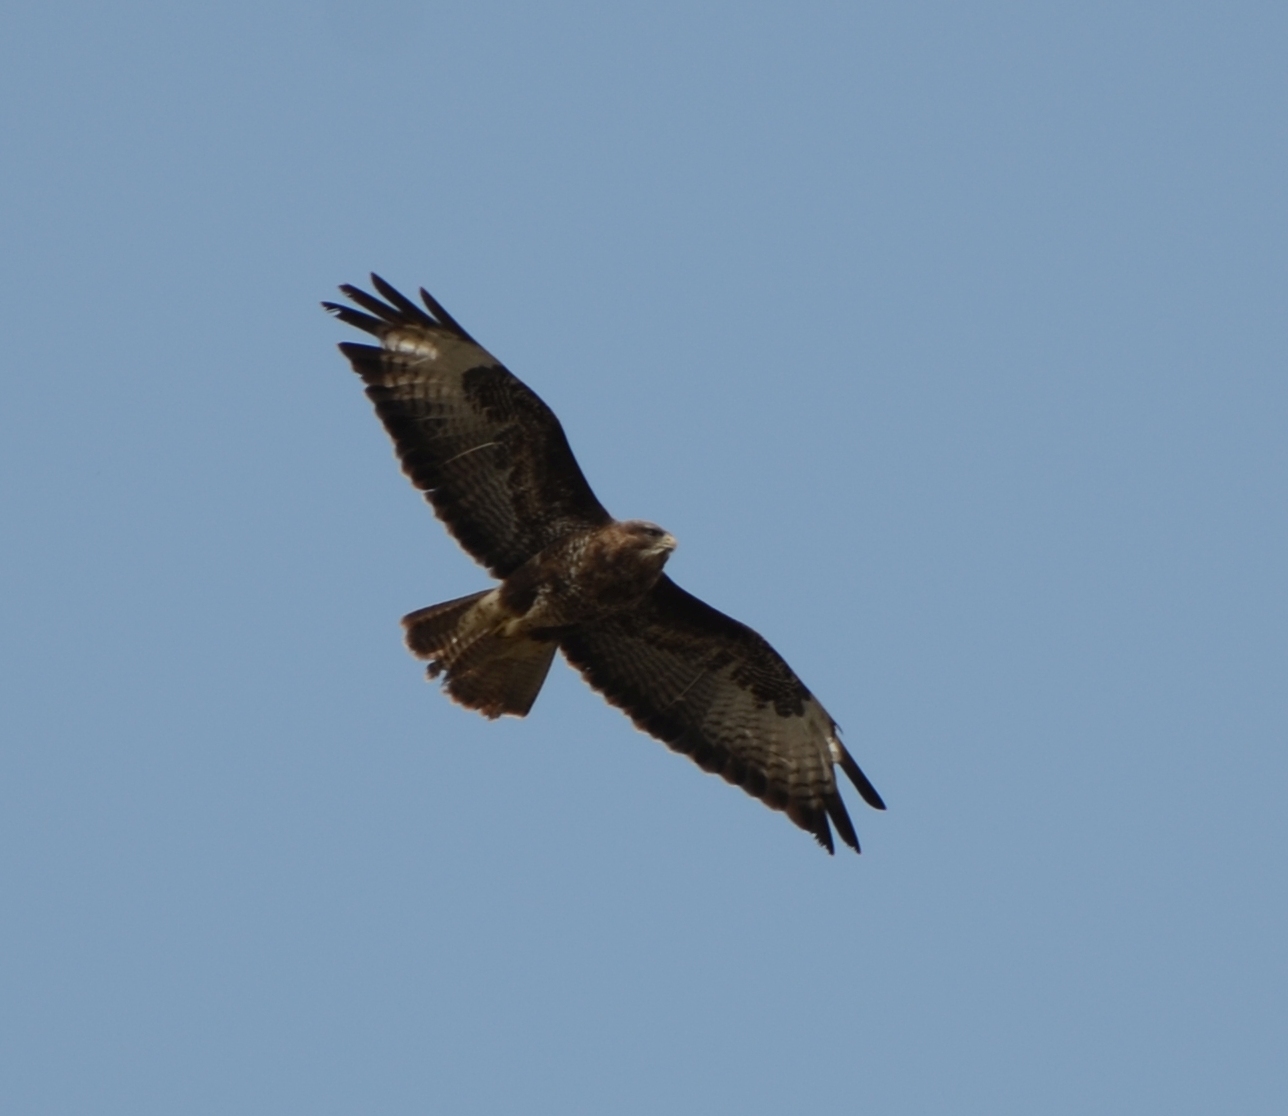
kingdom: Animalia
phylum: Chordata
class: Aves
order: Accipitriformes
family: Accipitridae
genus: Buteo
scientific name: Buteo buteo
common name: Common buzzard
